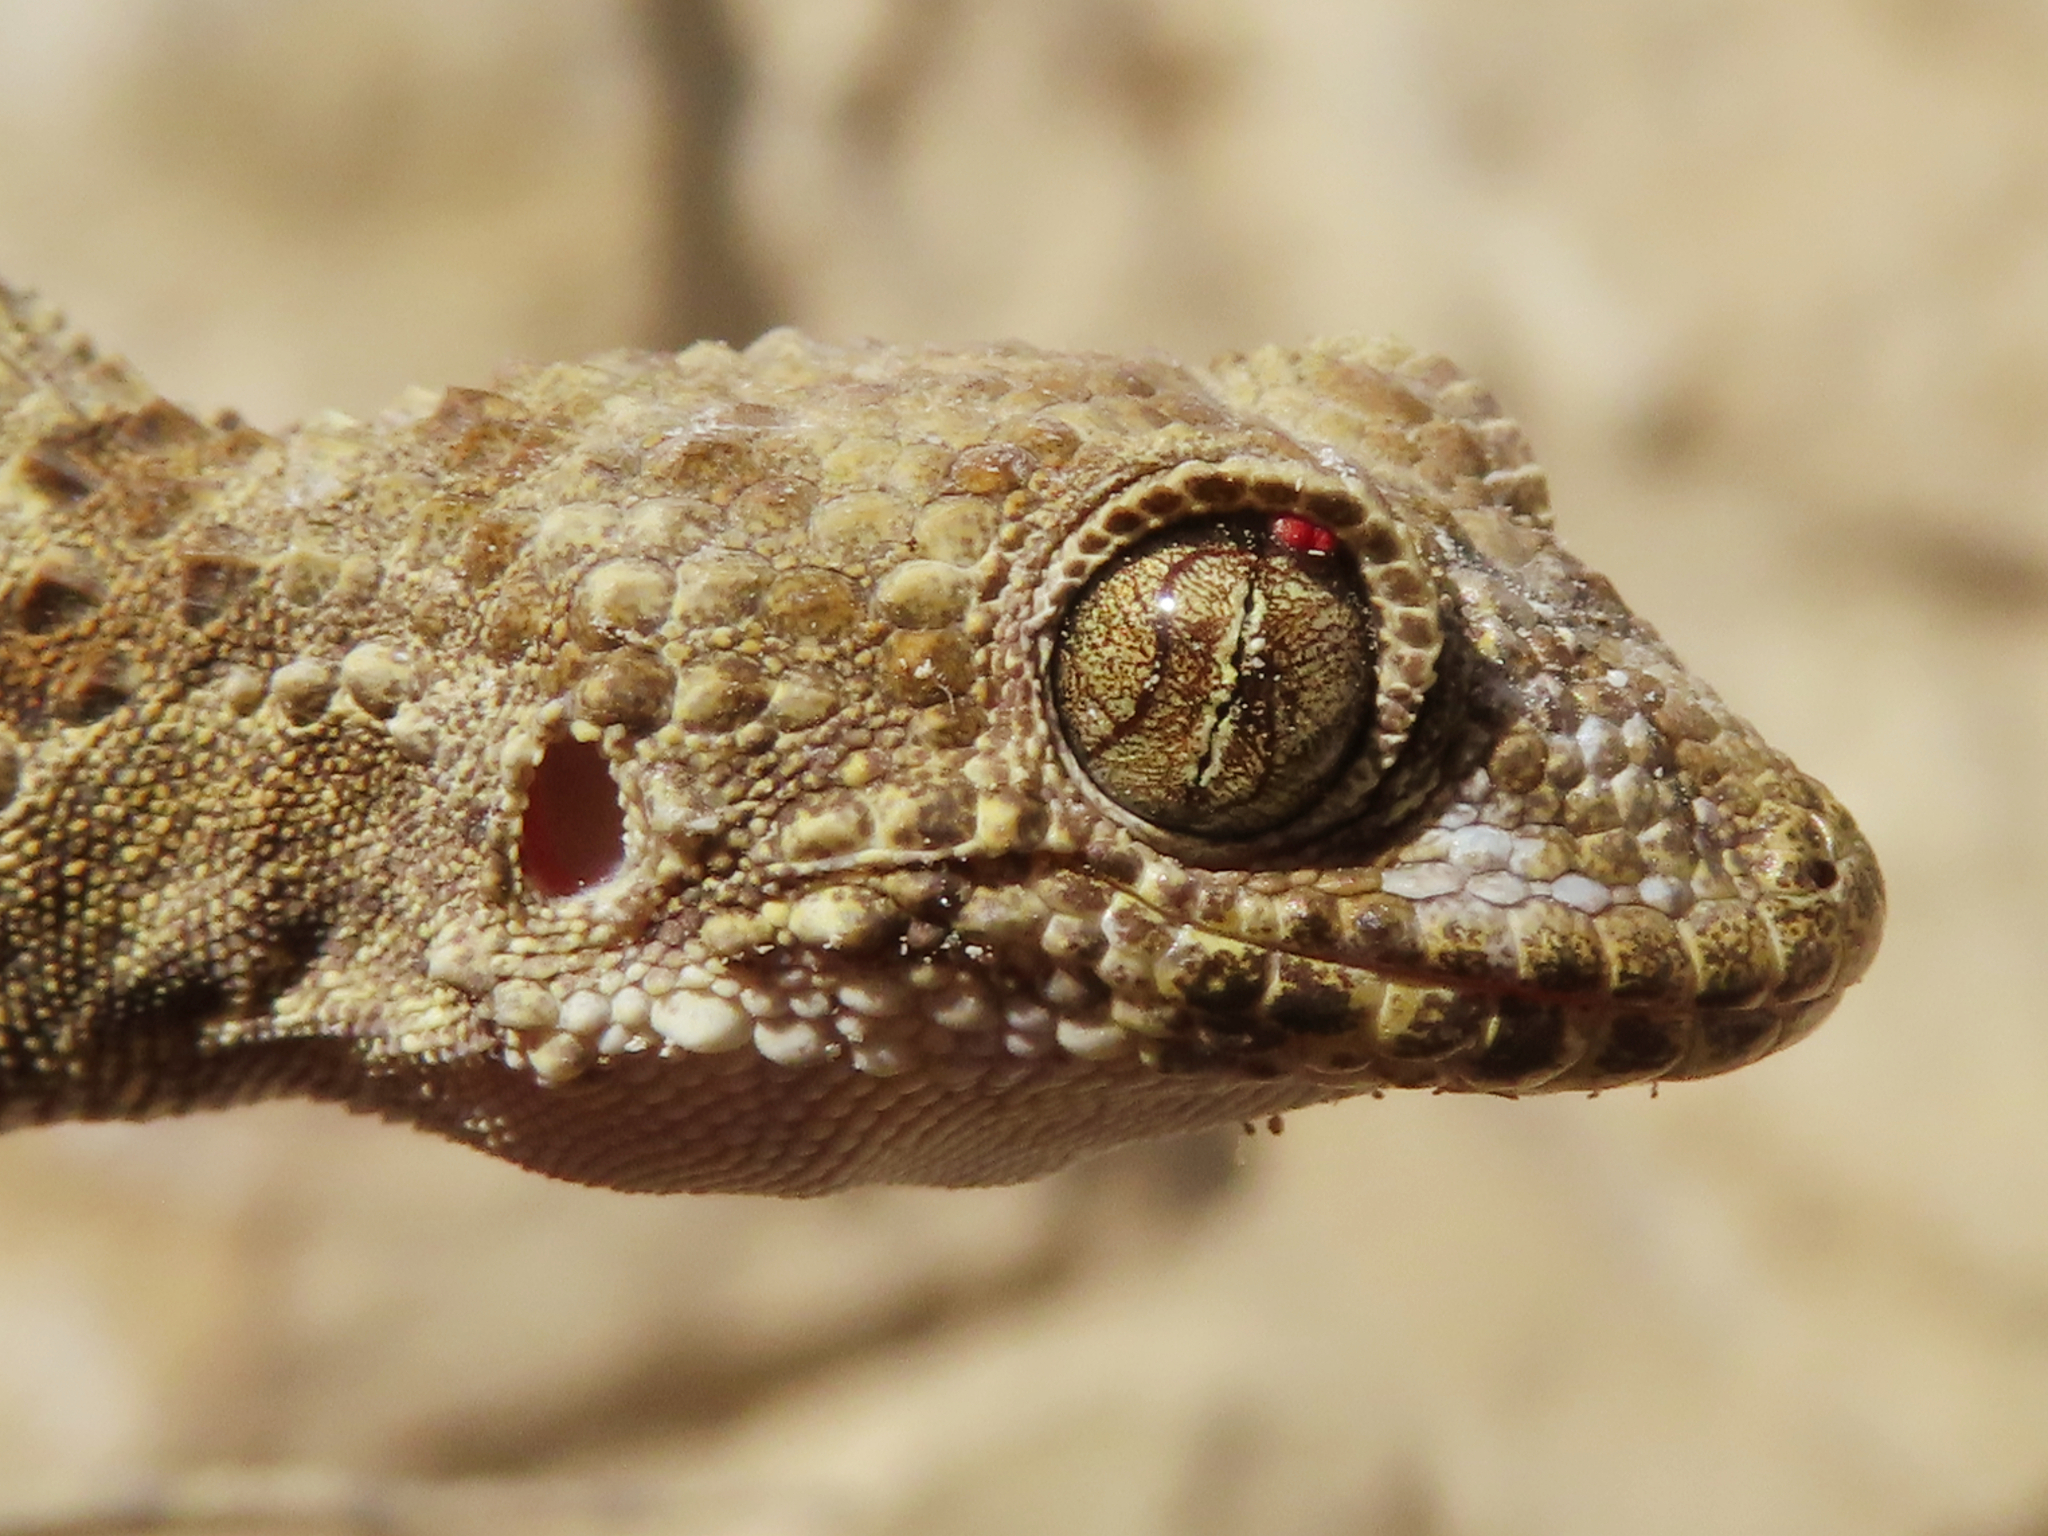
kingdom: Animalia
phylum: Chordata
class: Squamata
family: Gekkonidae
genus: Tenuidactylus
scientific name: Tenuidactylus caspius
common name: Caspian bent-toed gecko
